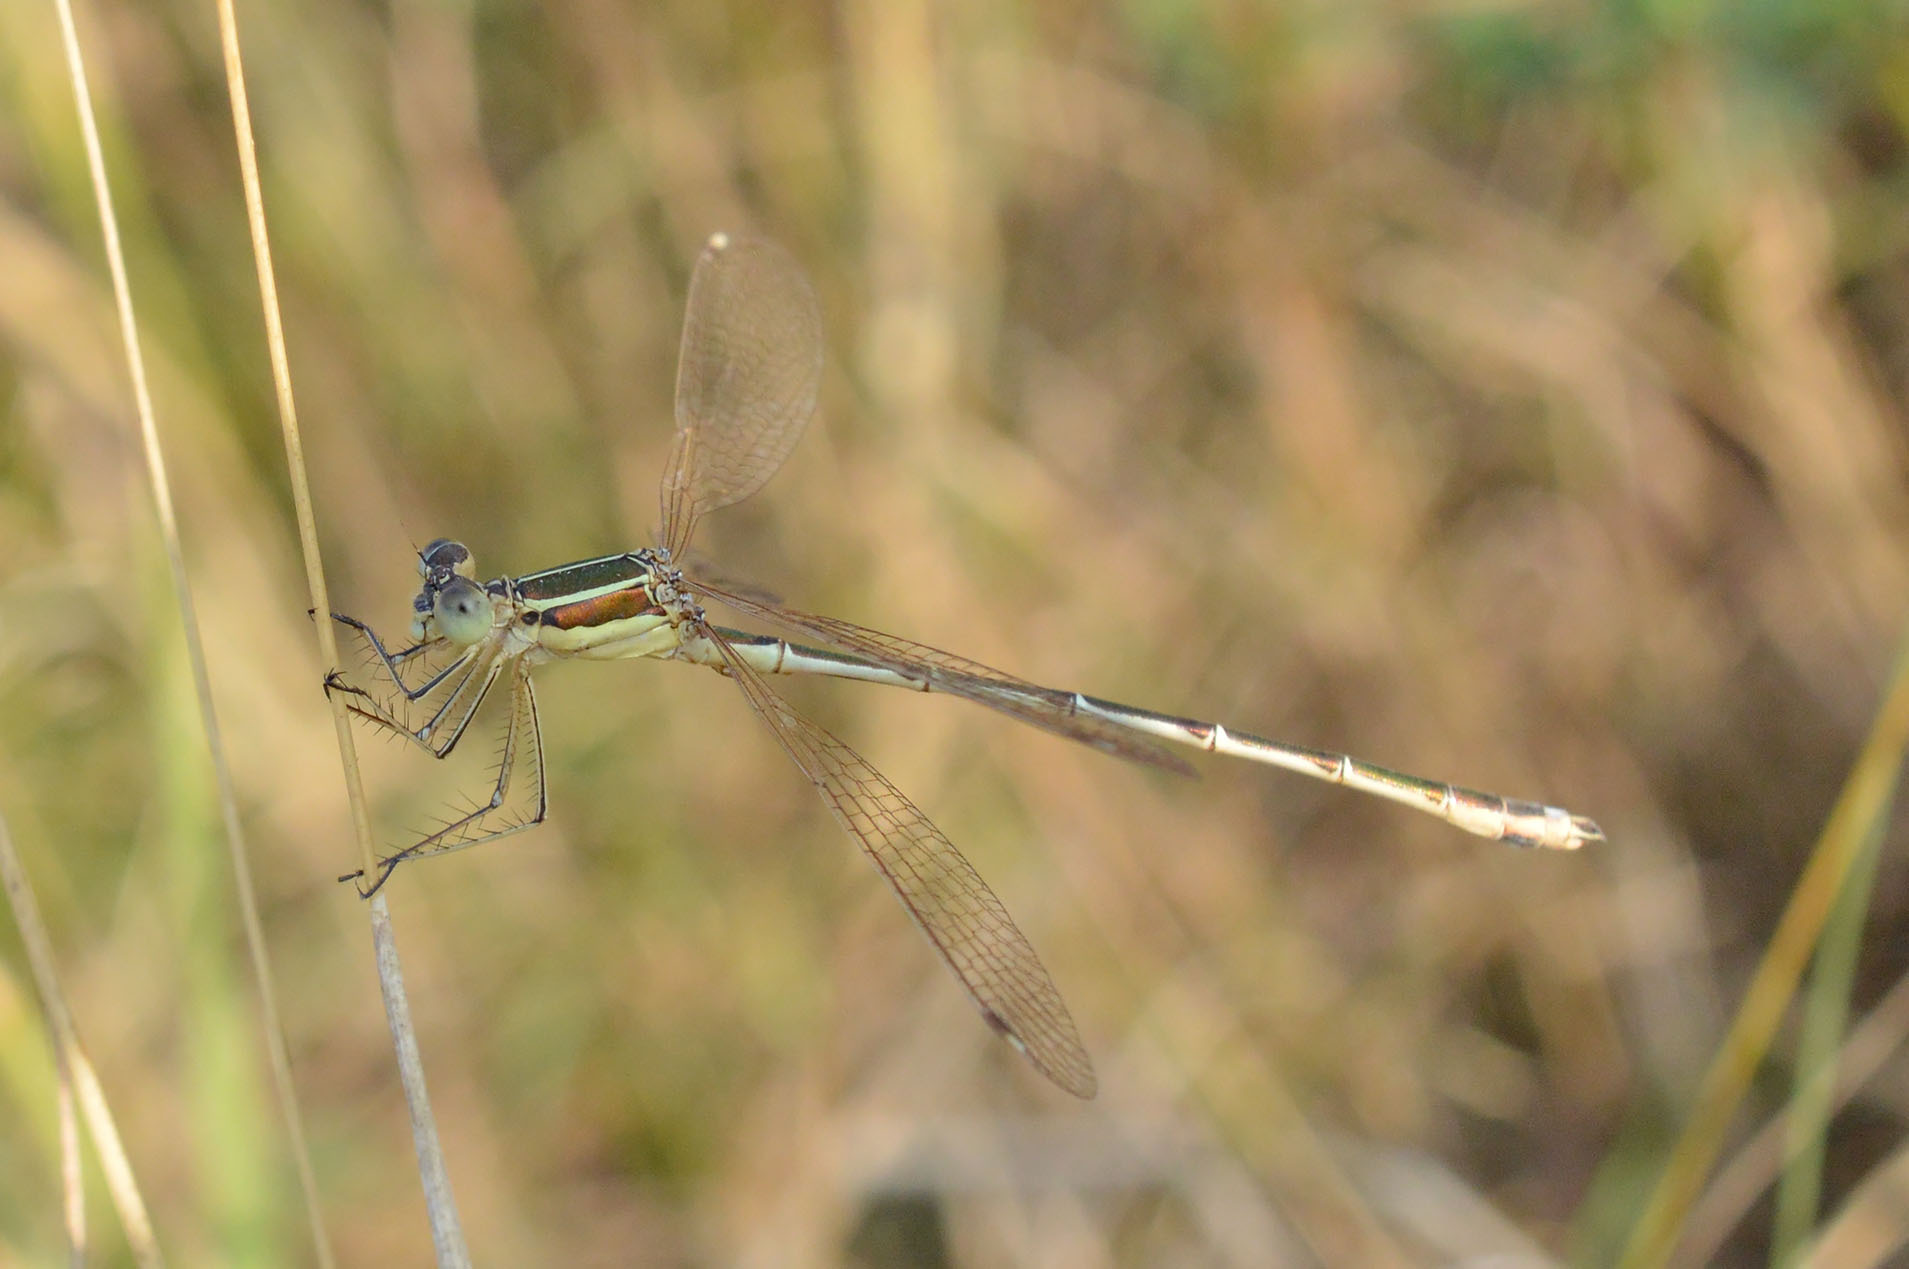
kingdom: Animalia
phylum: Arthropoda
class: Insecta
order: Odonata
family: Lestidae
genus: Lestes
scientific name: Lestes barbarus
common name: Migrant spreadwing
